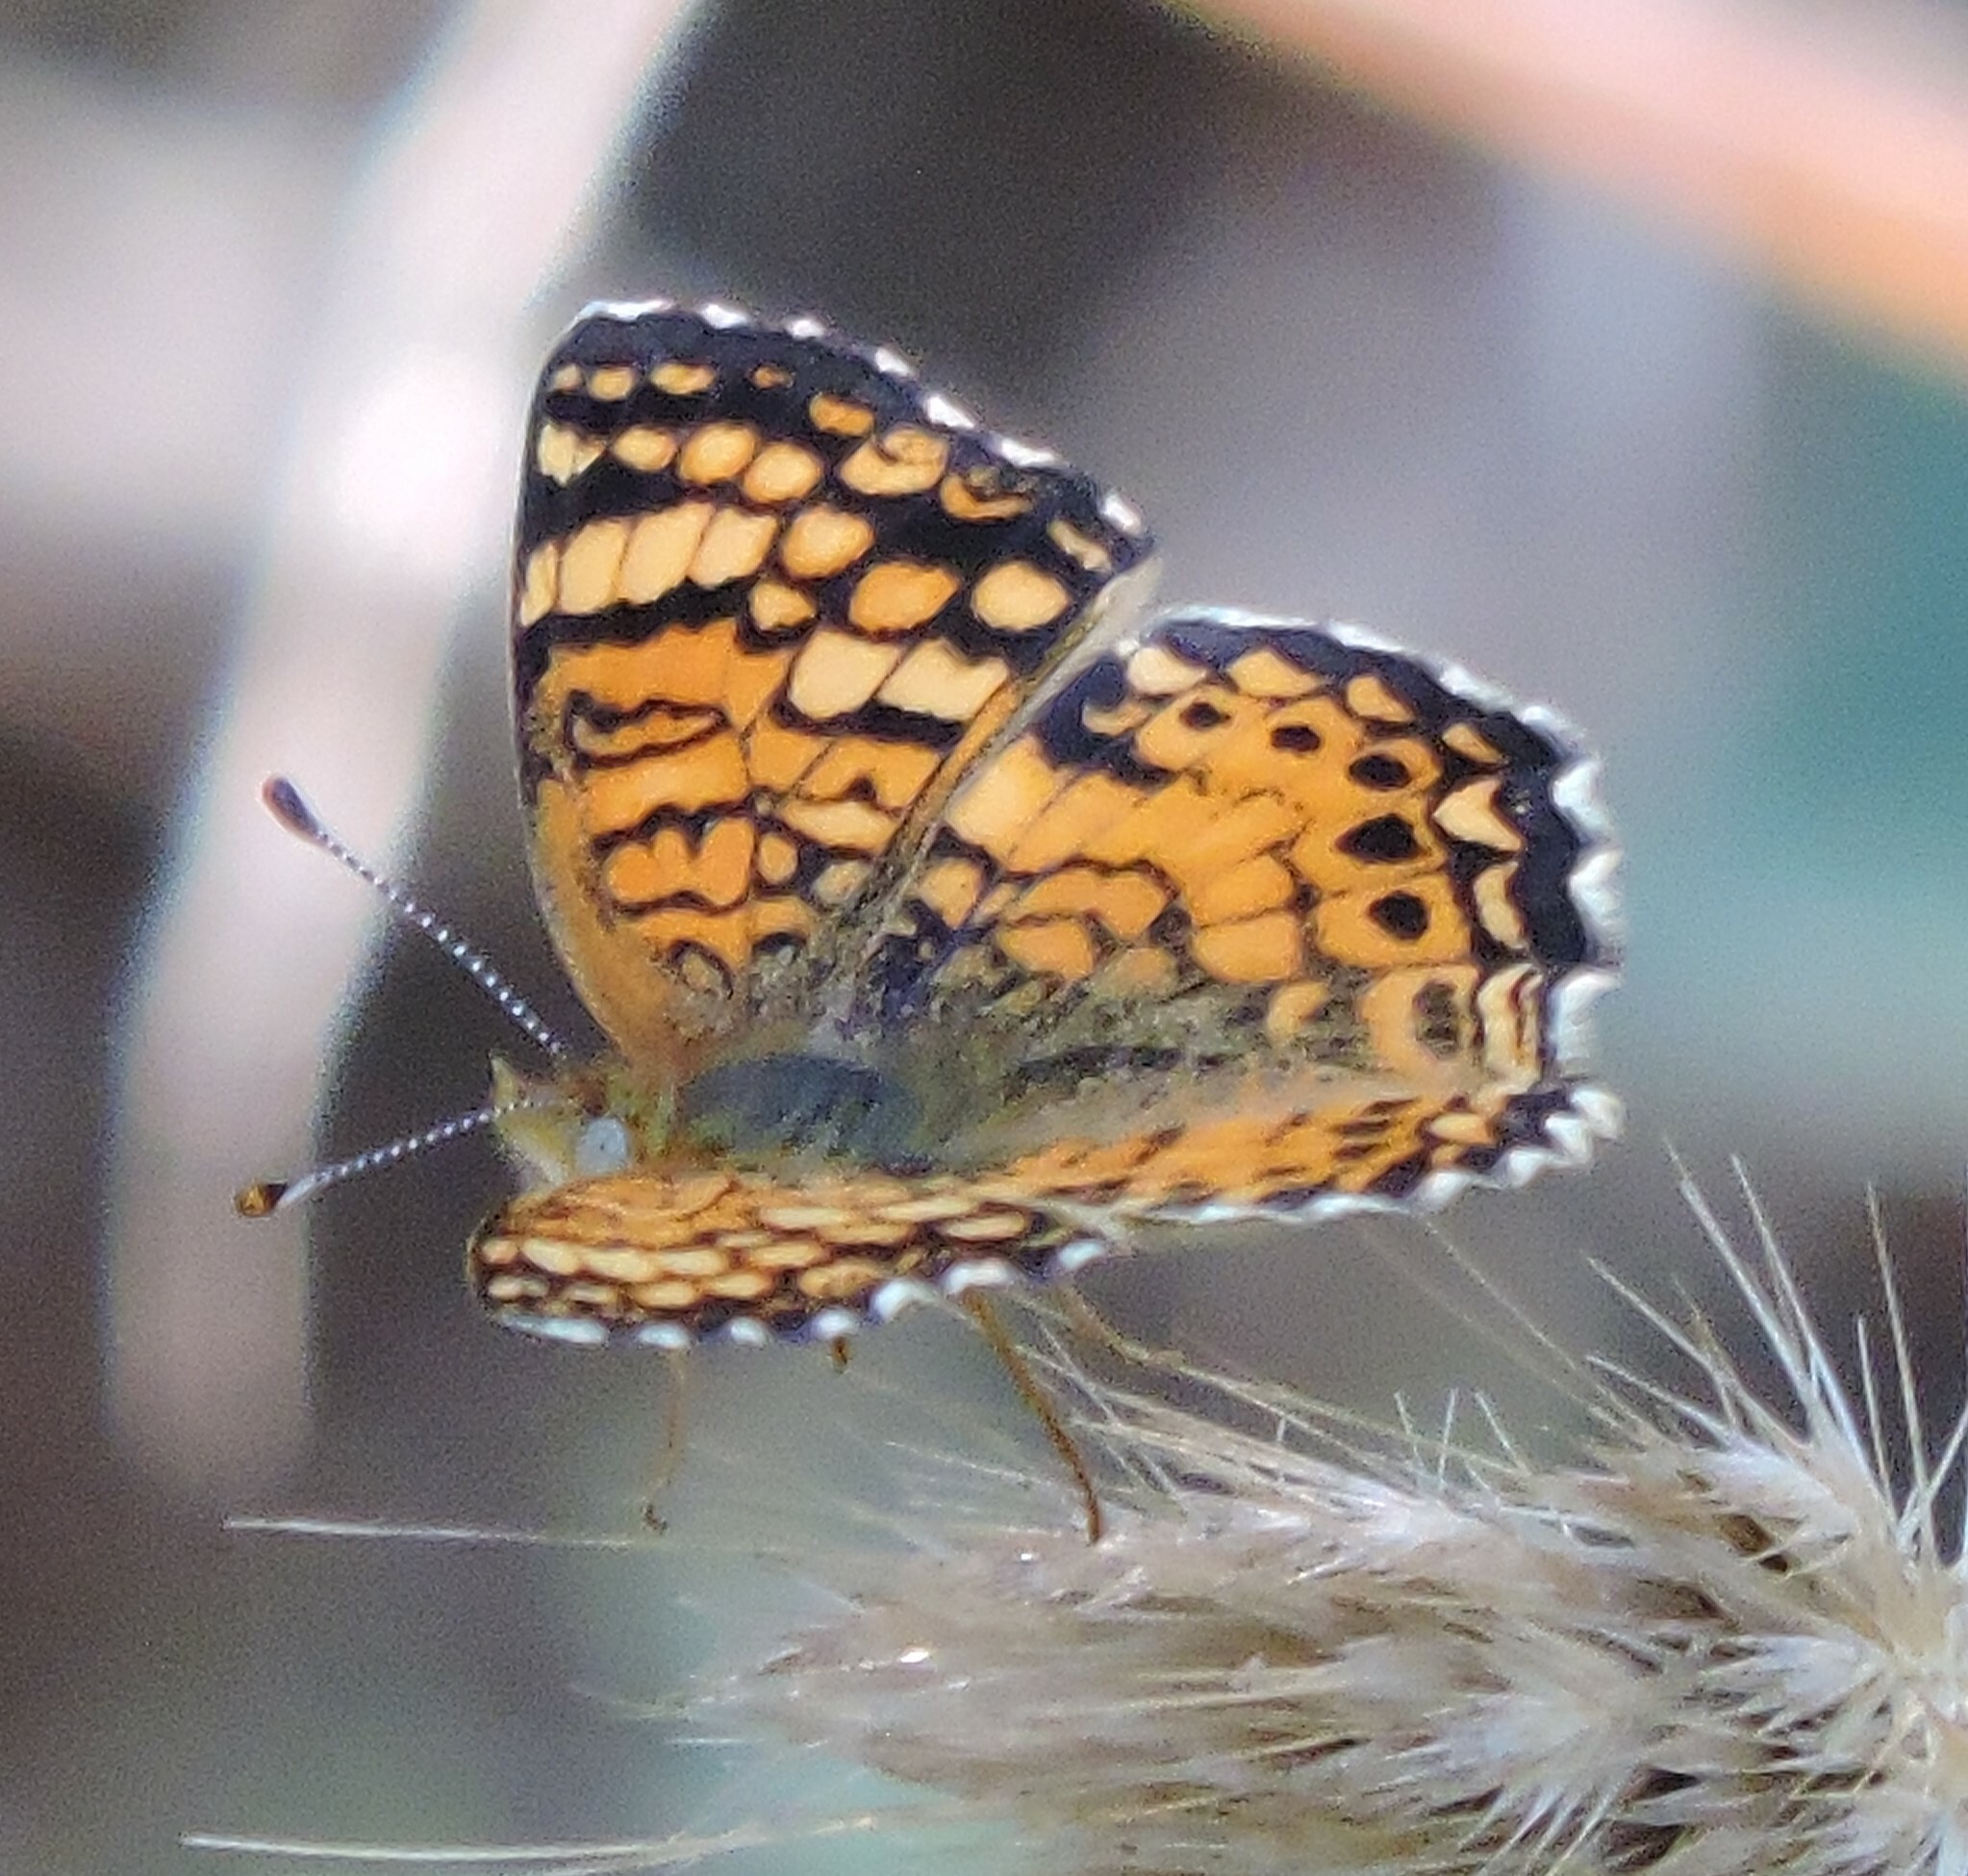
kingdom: Animalia
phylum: Arthropoda
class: Insecta
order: Lepidoptera
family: Nymphalidae
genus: Eresia
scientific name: Eresia aveyrona
